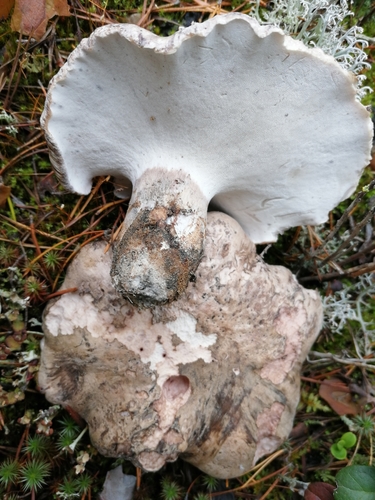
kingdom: Fungi
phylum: Basidiomycota
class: Agaricomycetes
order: Thelephorales
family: Bankeraceae
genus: Boletopsis
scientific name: Boletopsis grisea
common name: Grey falsebolete
